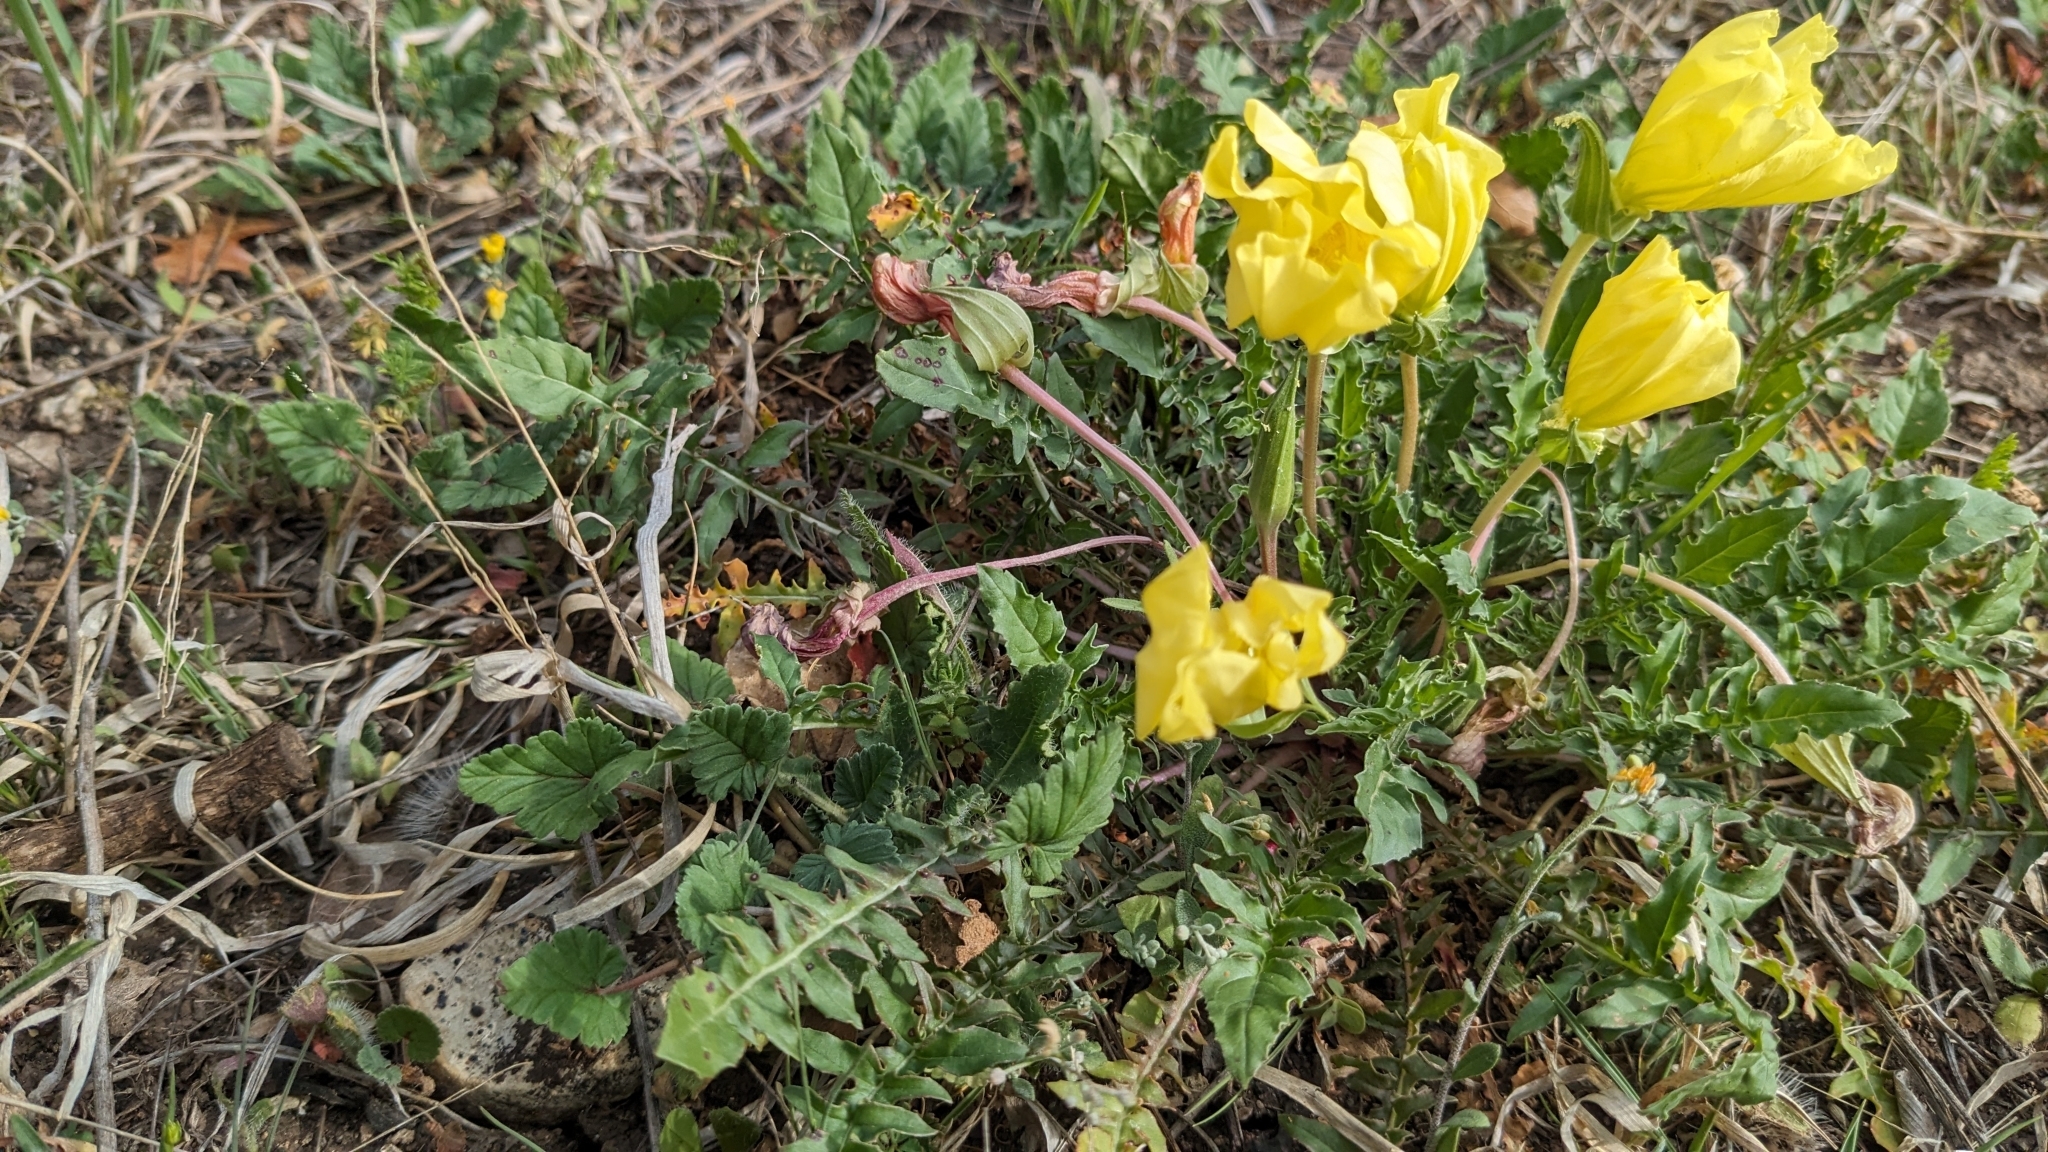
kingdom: Plantae
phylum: Tracheophyta
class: Magnoliopsida
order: Myrtales
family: Onagraceae
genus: Oenothera
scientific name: Oenothera triloba
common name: Sessile evening-primrose
